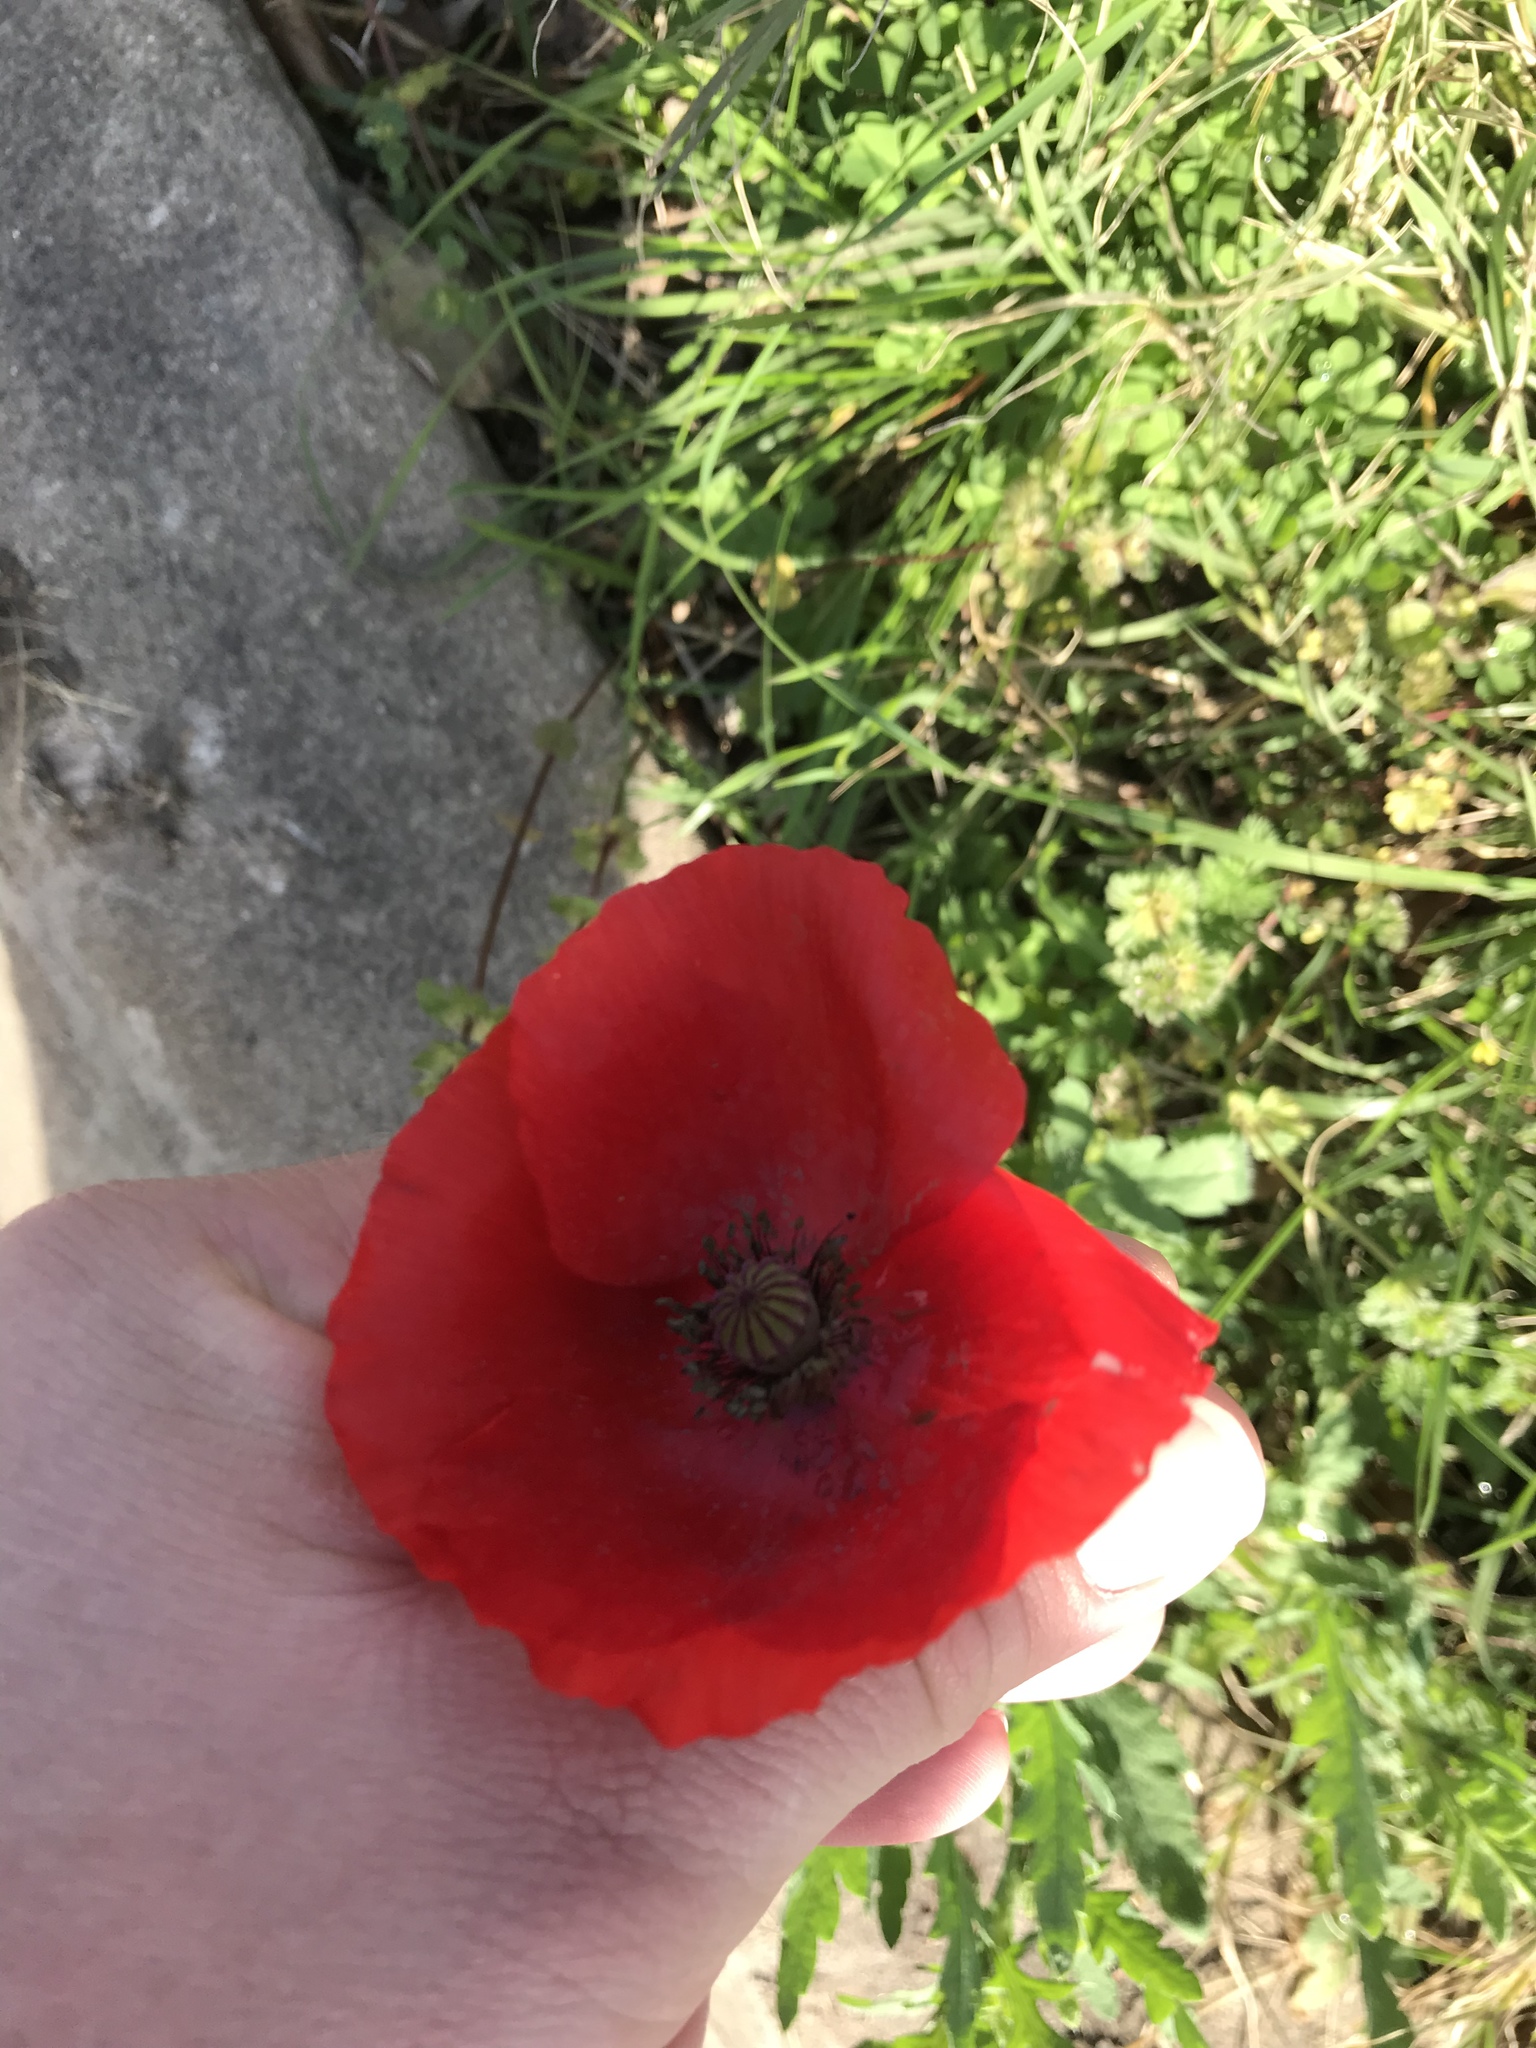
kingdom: Plantae
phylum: Tracheophyta
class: Magnoliopsida
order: Ranunculales
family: Papaveraceae
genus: Papaver
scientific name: Papaver rhoeas
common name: Corn poppy
